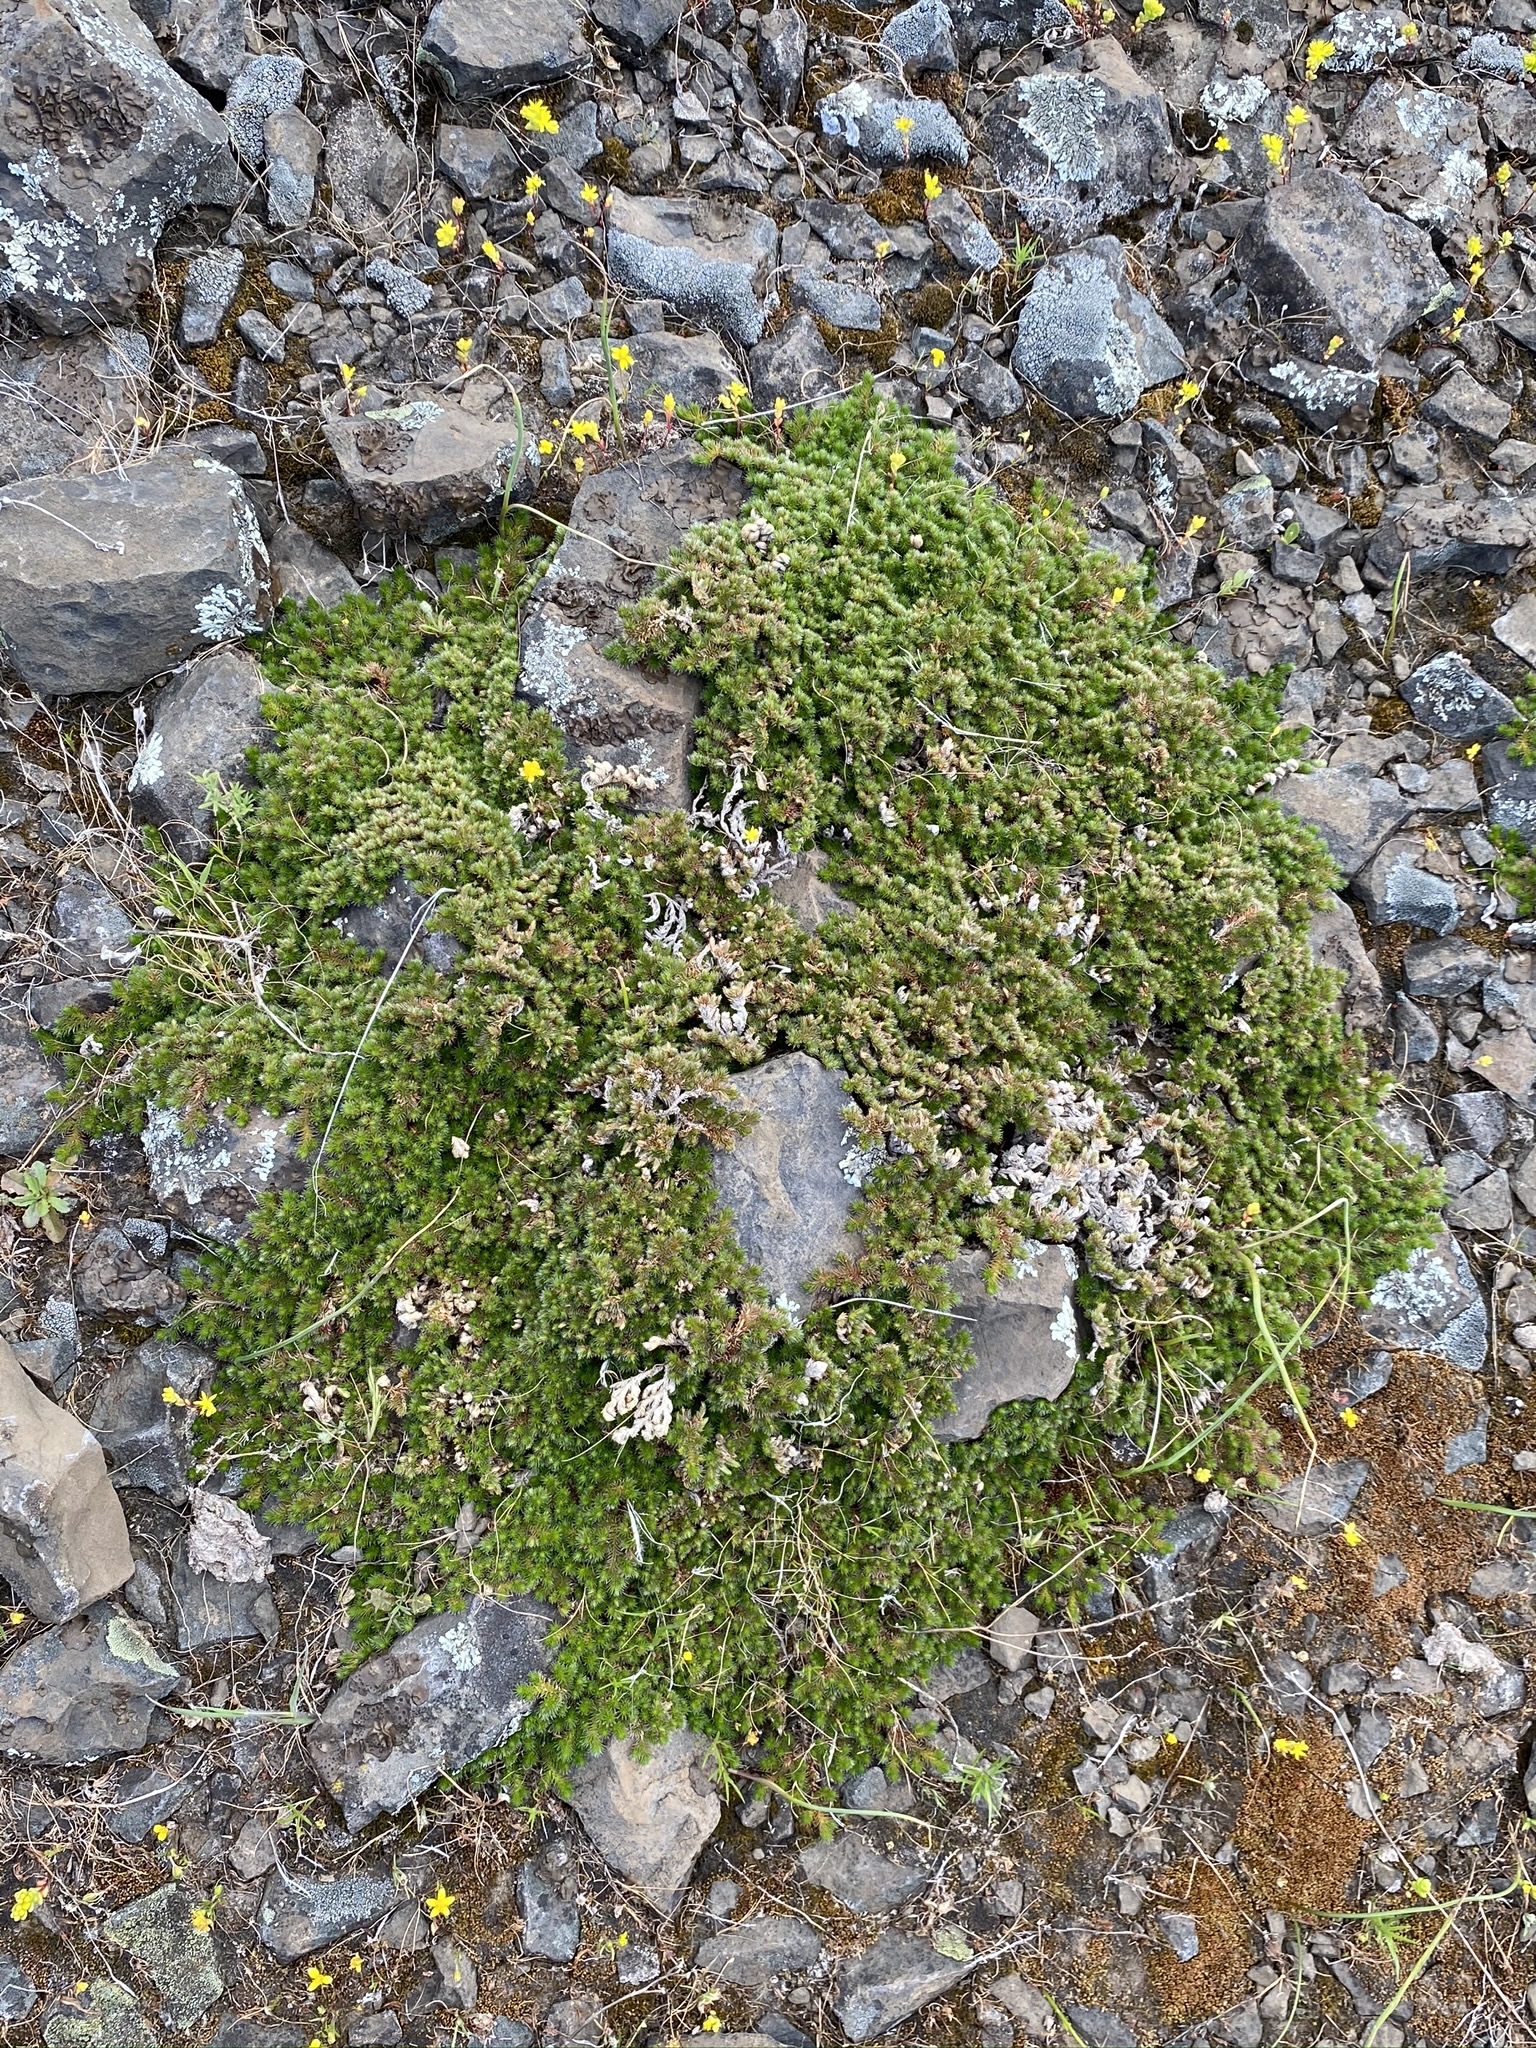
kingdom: Plantae
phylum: Tracheophyta
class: Lycopodiopsida
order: Selaginellales
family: Selaginellaceae
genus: Selaginella
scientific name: Selaginella hansenii
